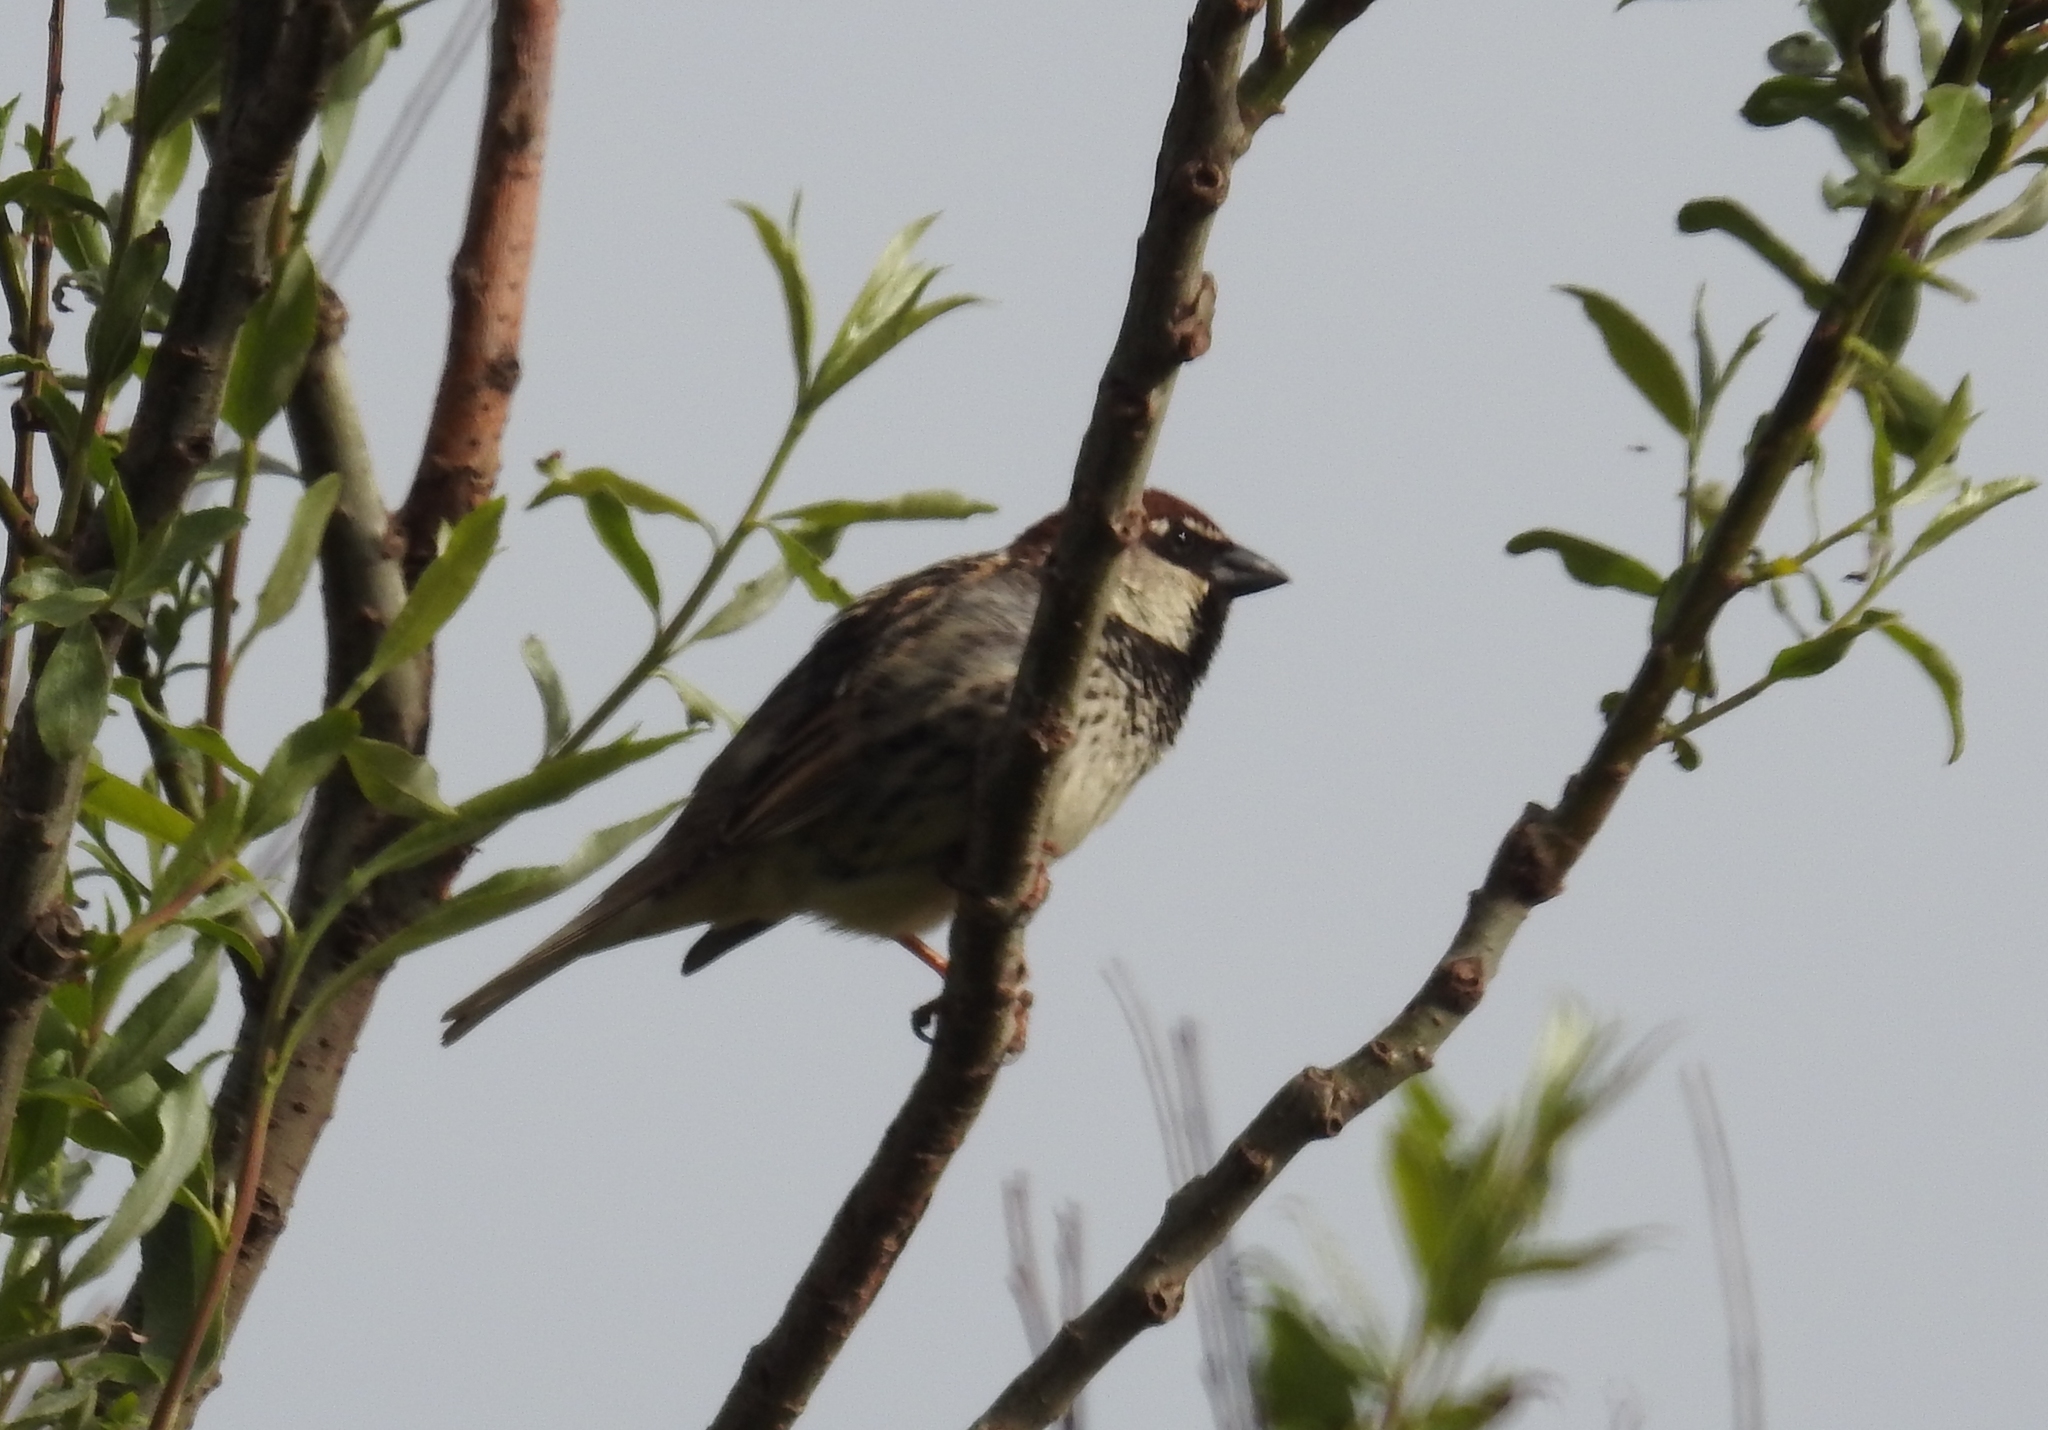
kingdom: Animalia
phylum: Chordata
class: Aves
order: Passeriformes
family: Passeridae
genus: Passer
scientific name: Passer hispaniolensis
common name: Spanish sparrow
